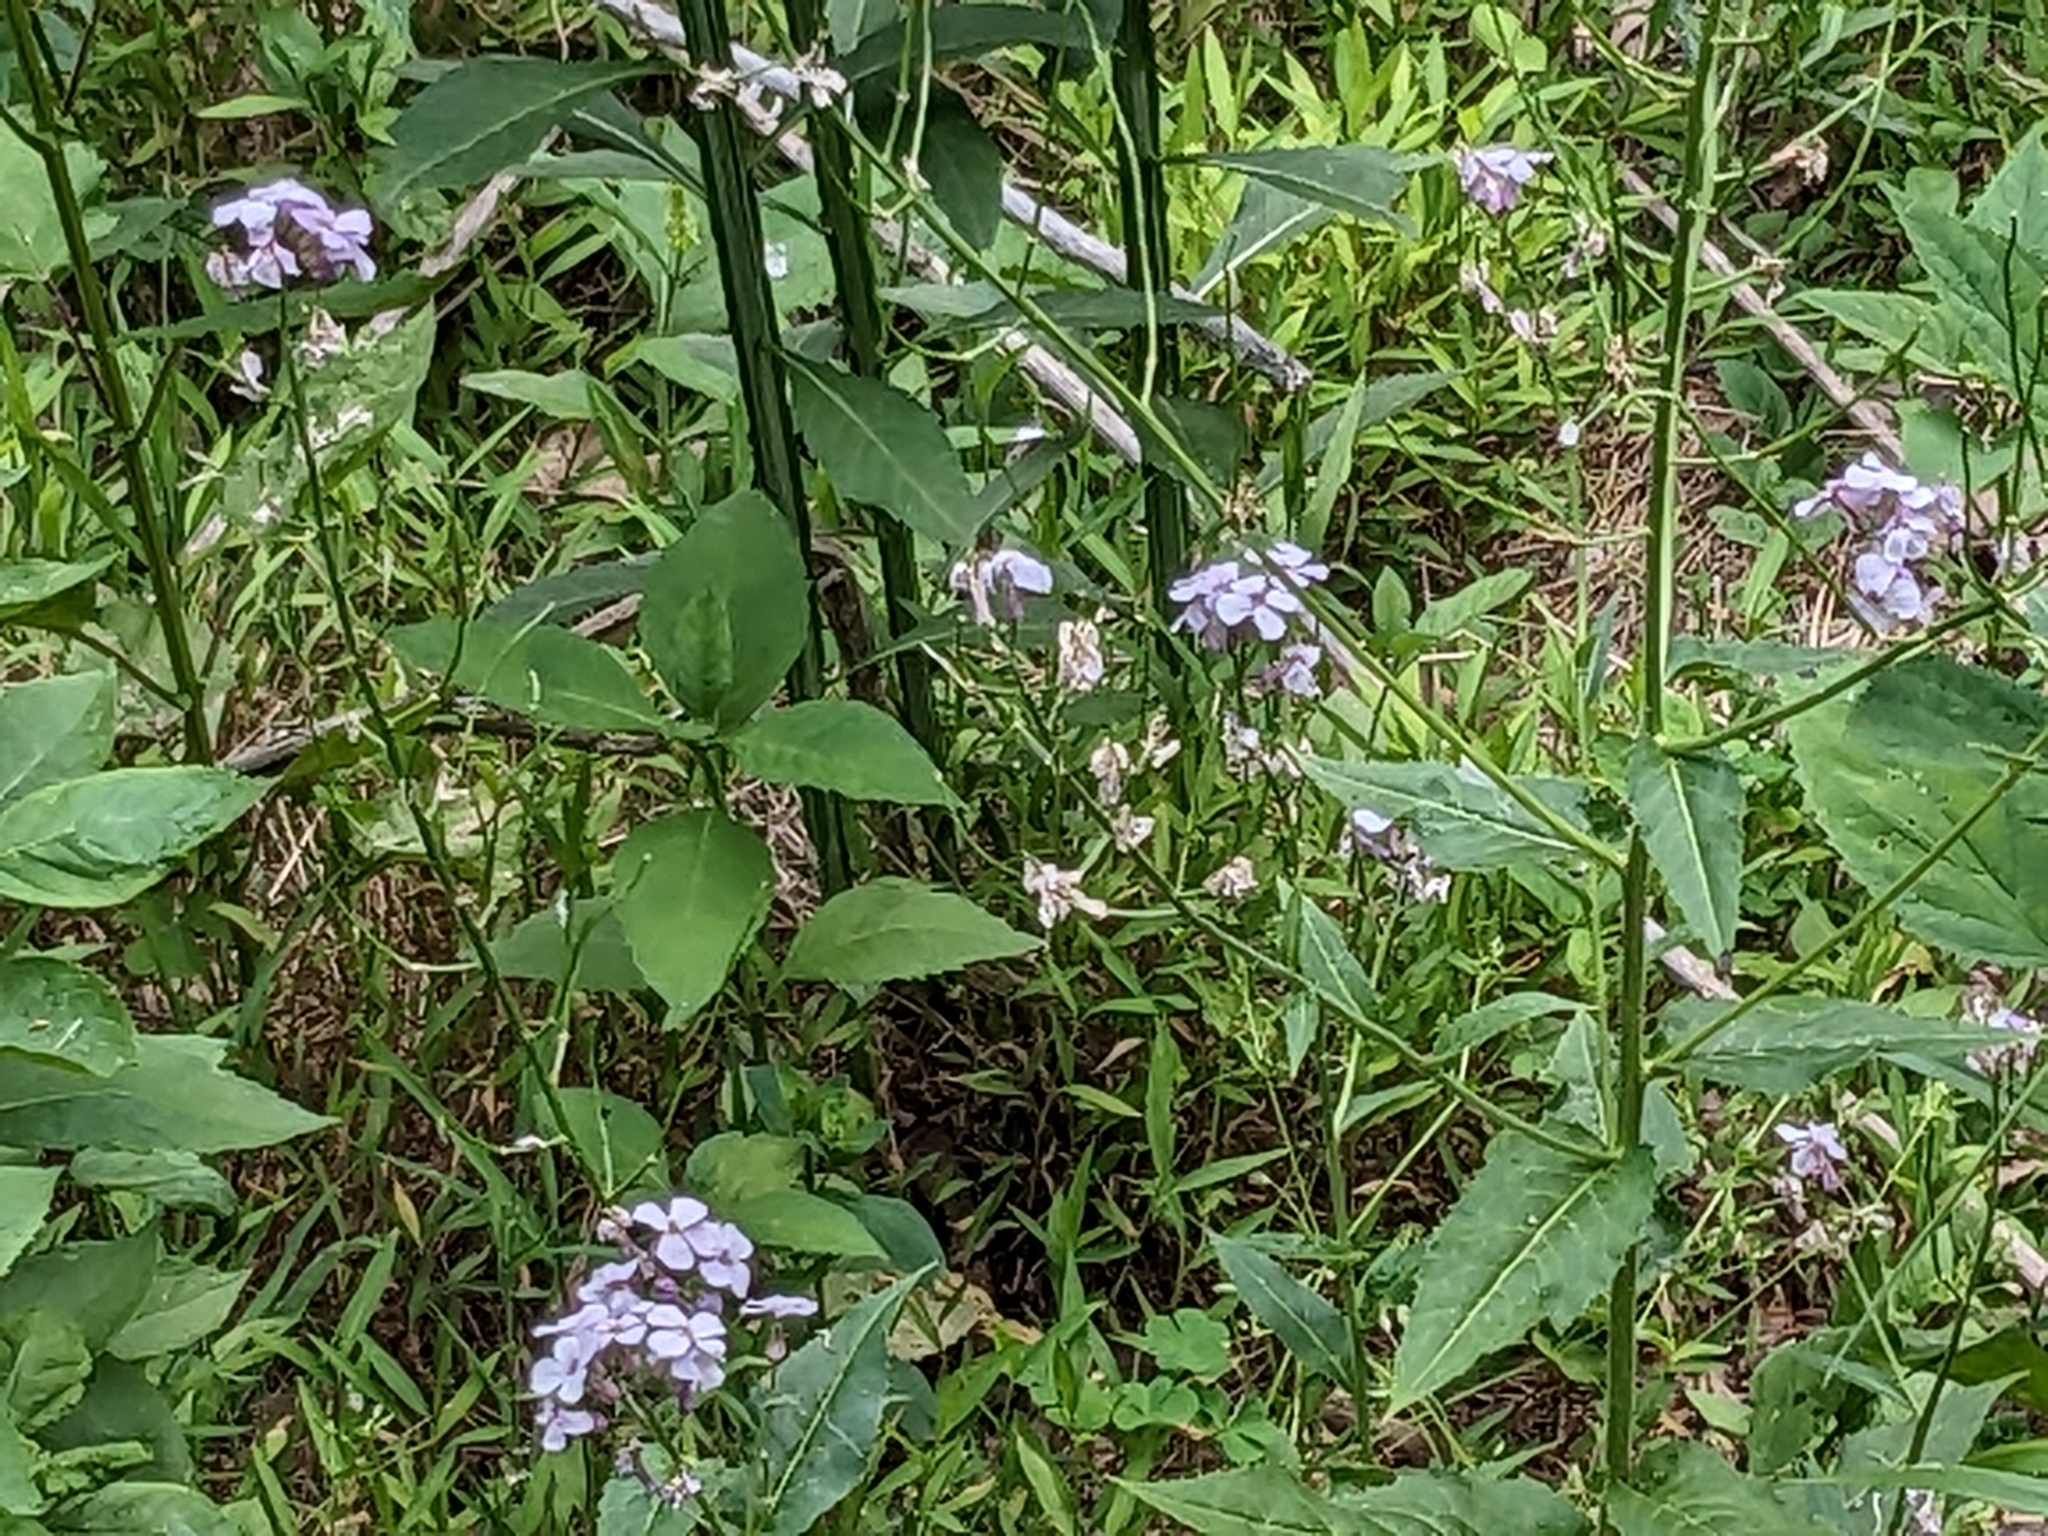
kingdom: Plantae
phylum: Tracheophyta
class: Magnoliopsida
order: Brassicales
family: Brassicaceae
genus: Hesperis
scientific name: Hesperis matronalis
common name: Dame's-violet
